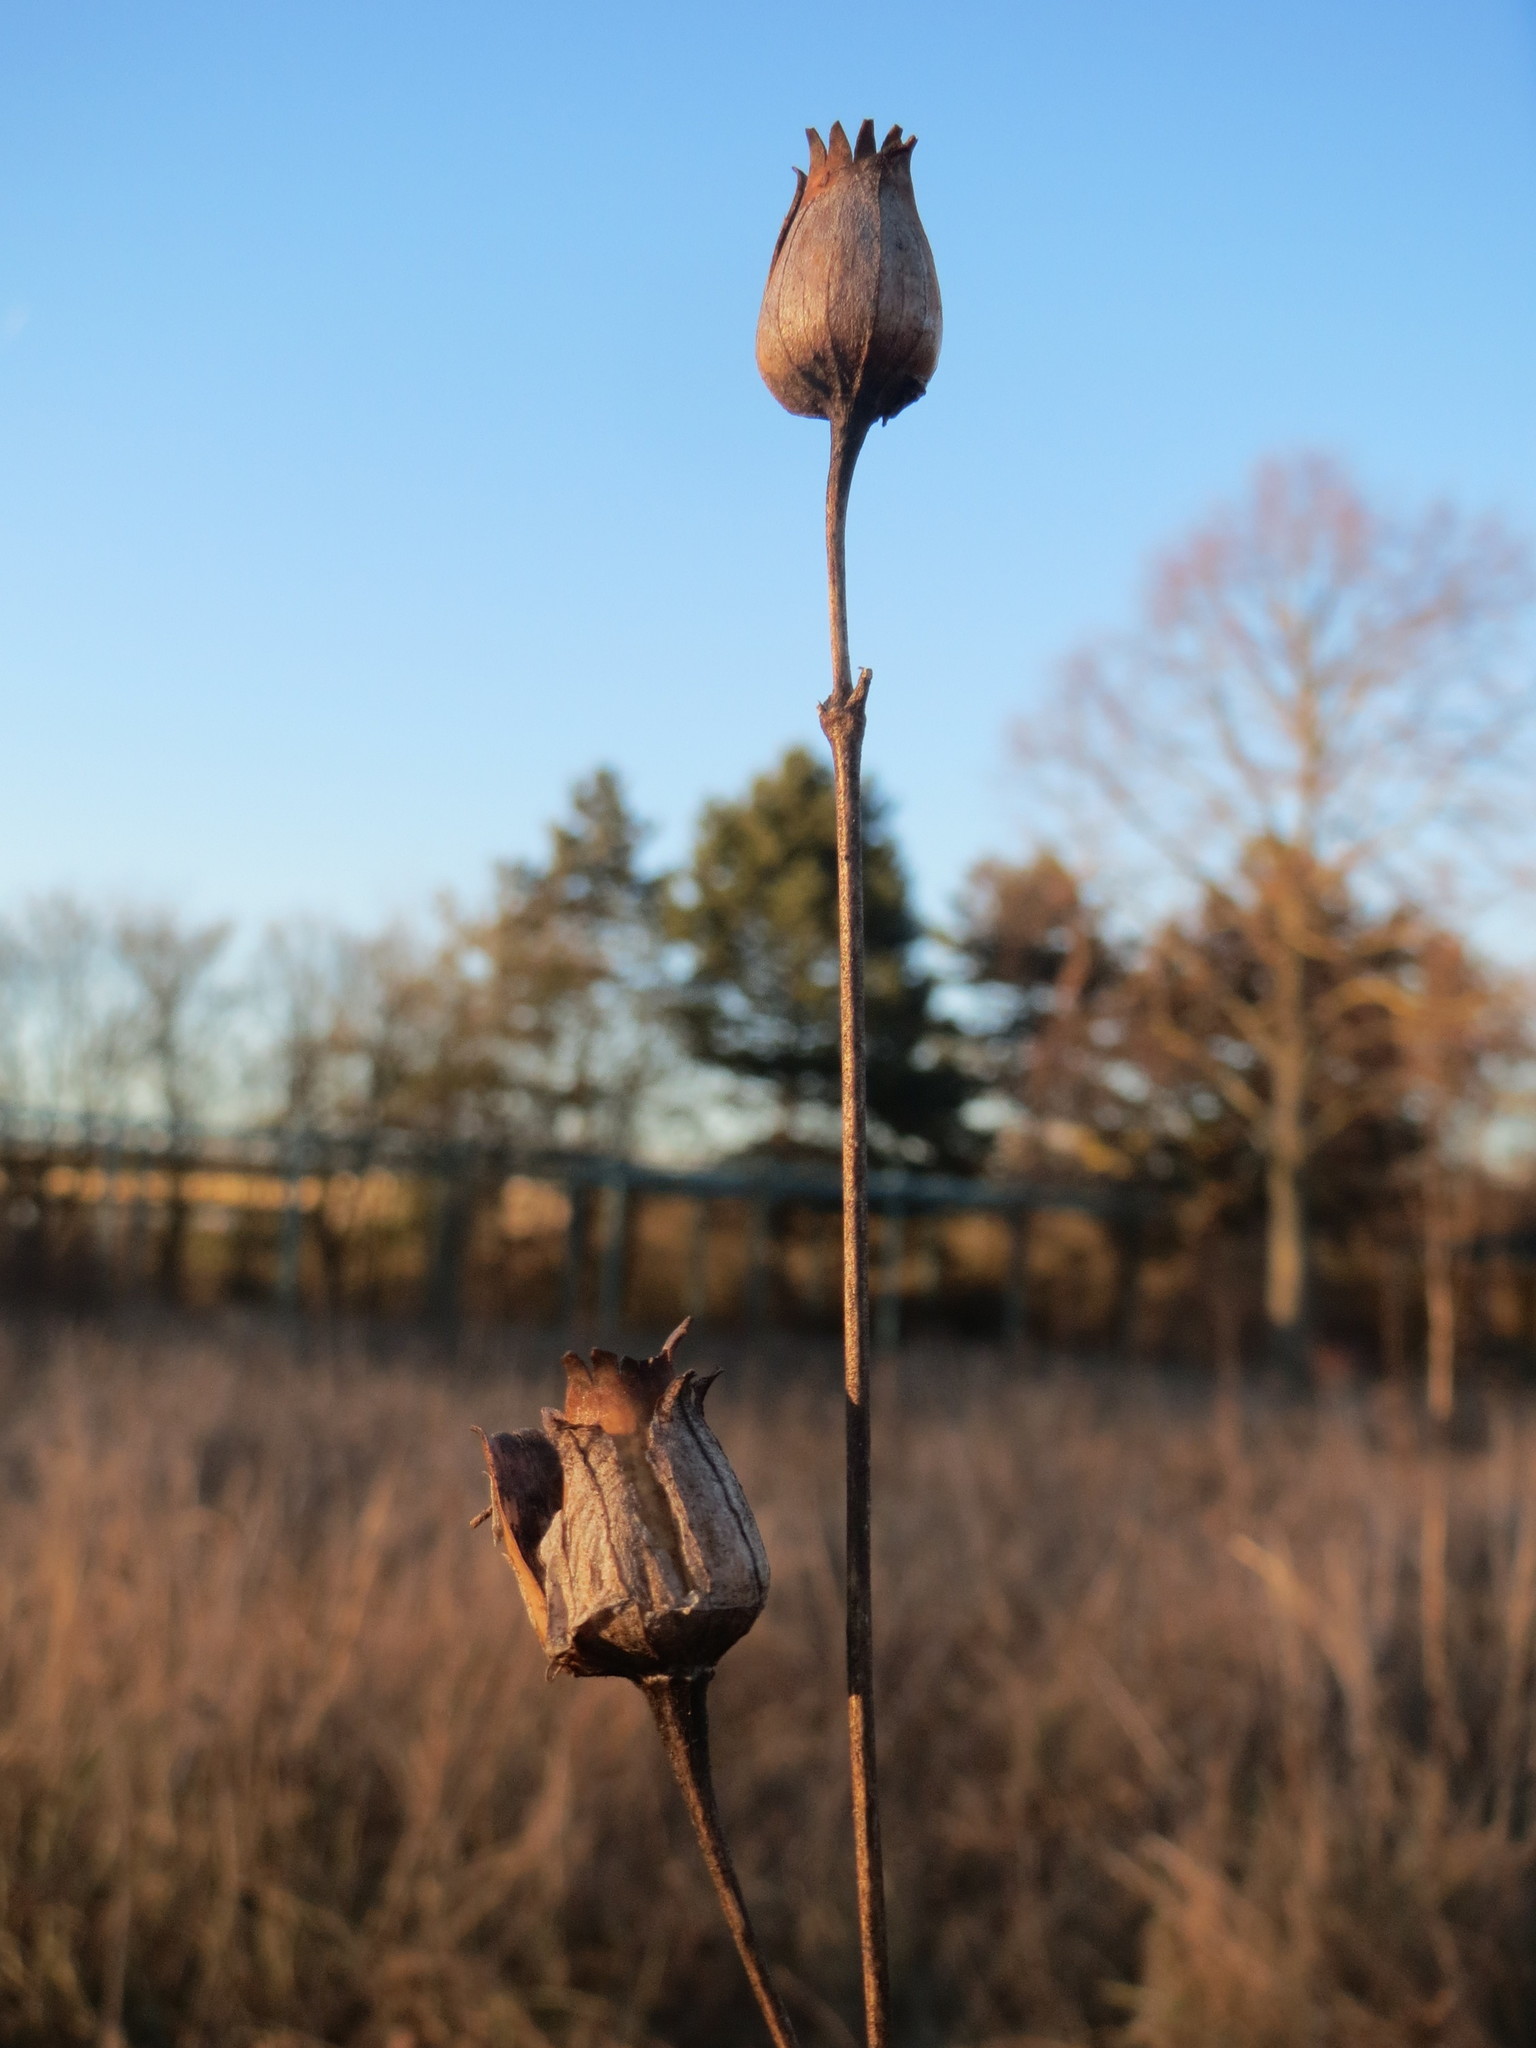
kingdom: Plantae
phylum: Tracheophyta
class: Magnoliopsida
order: Caryophyllales
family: Caryophyllaceae
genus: Silene
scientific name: Silene latifolia
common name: White campion
